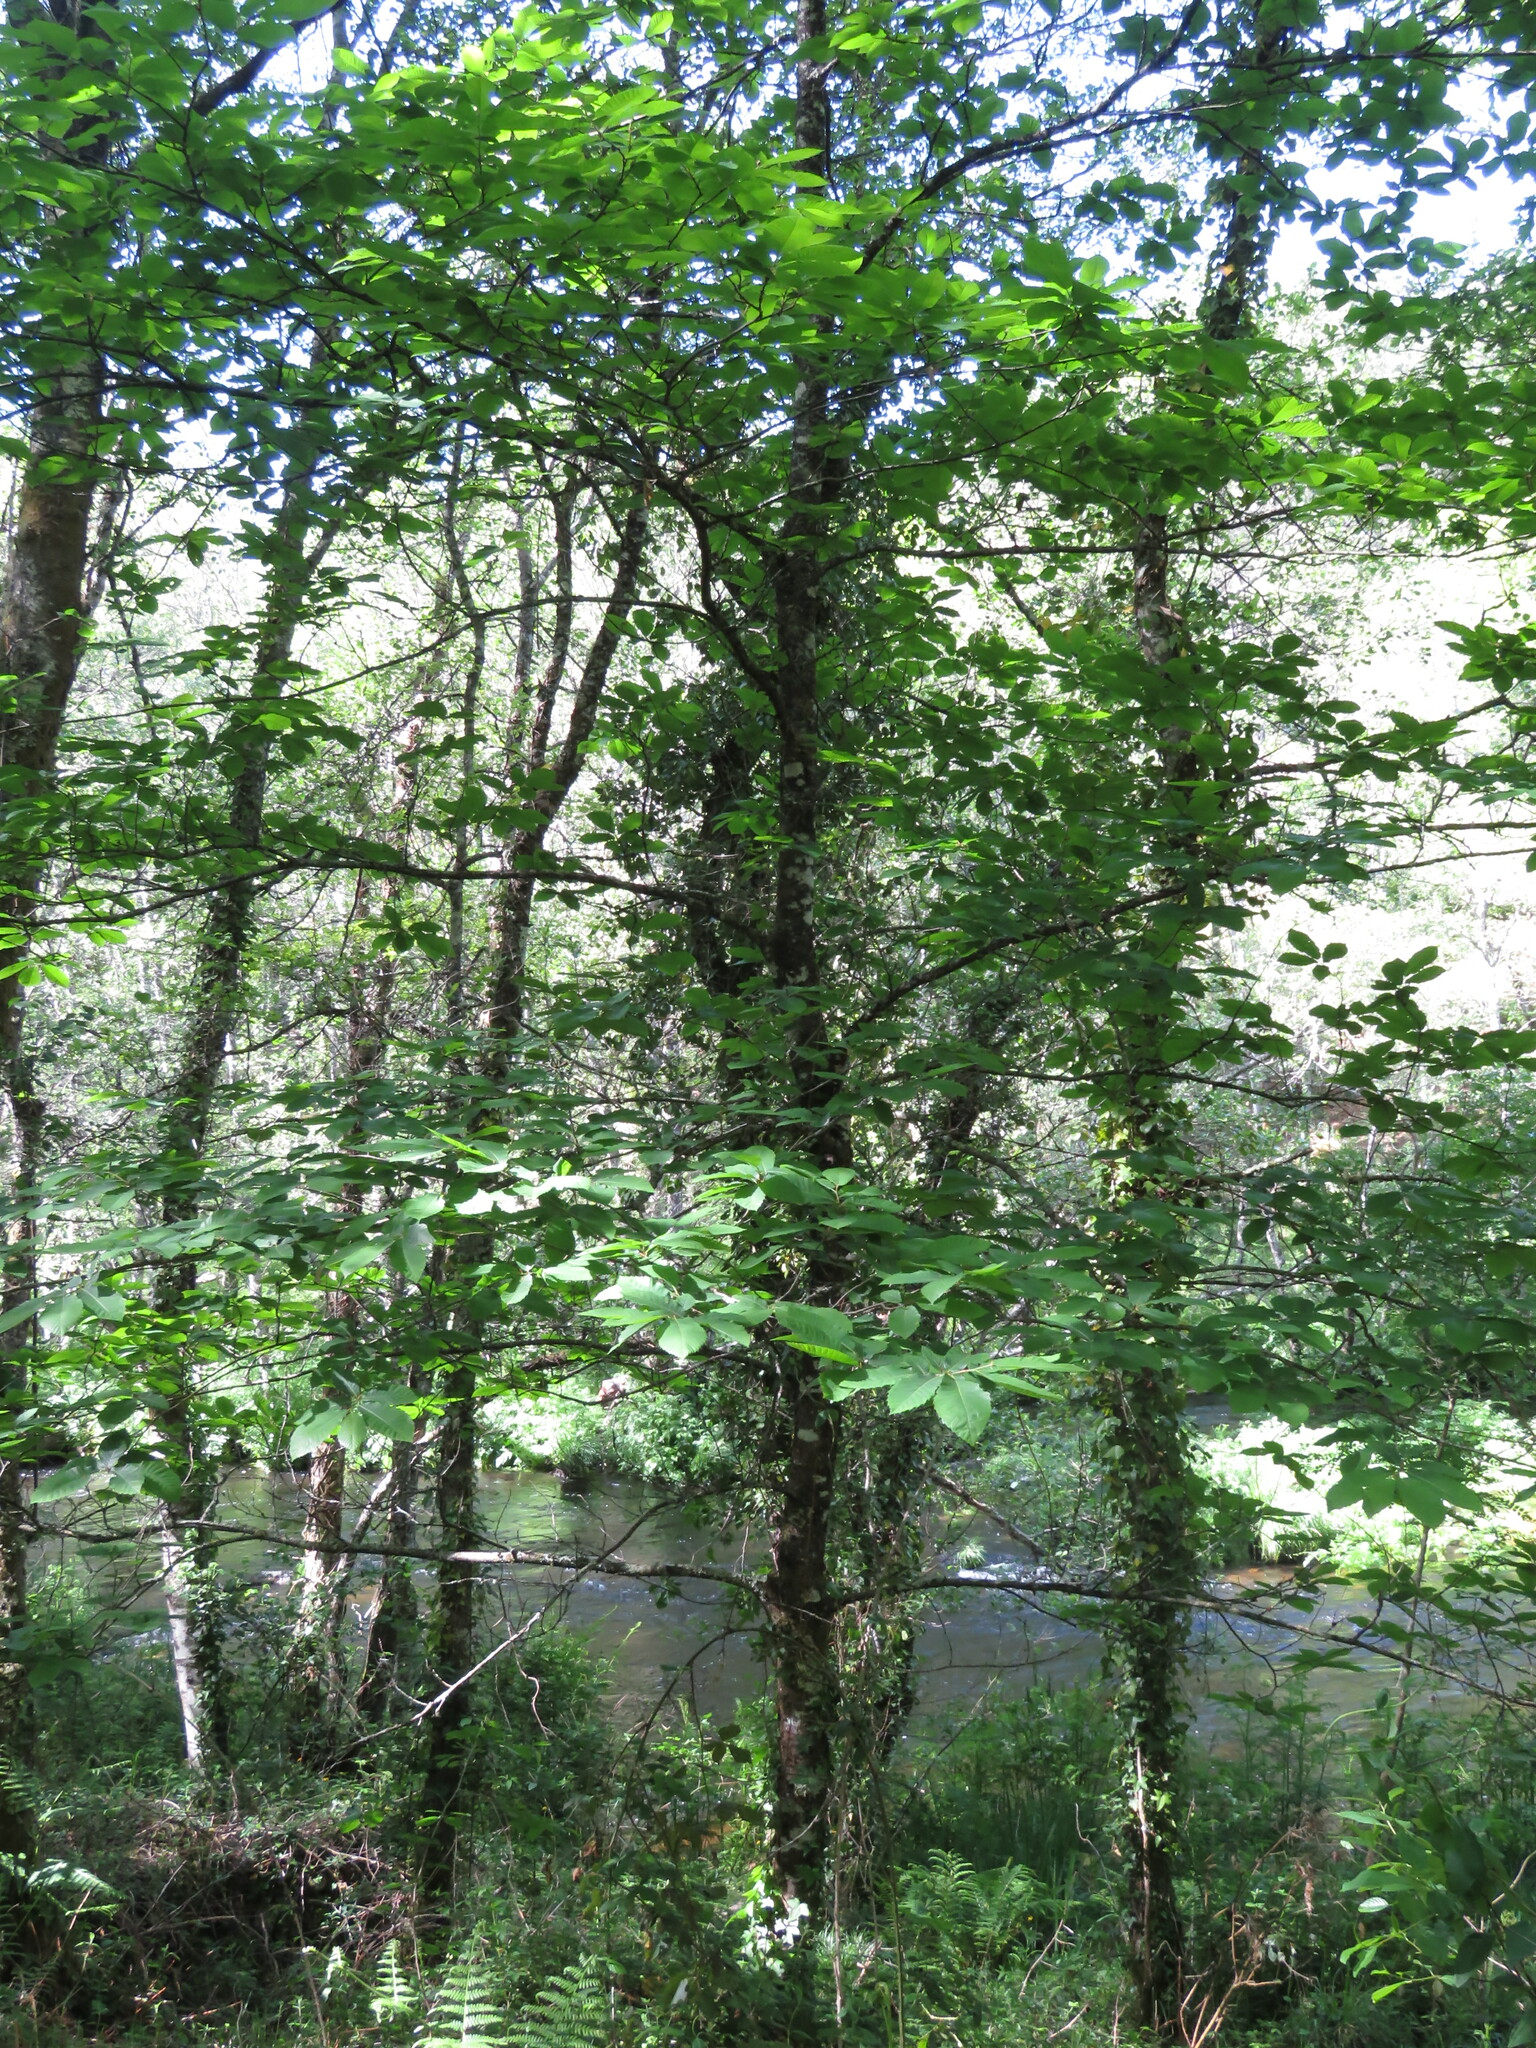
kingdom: Plantae
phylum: Tracheophyta
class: Magnoliopsida
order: Fagales
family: Fagaceae
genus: Castanea
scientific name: Castanea sativa
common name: Sweet chestnut
